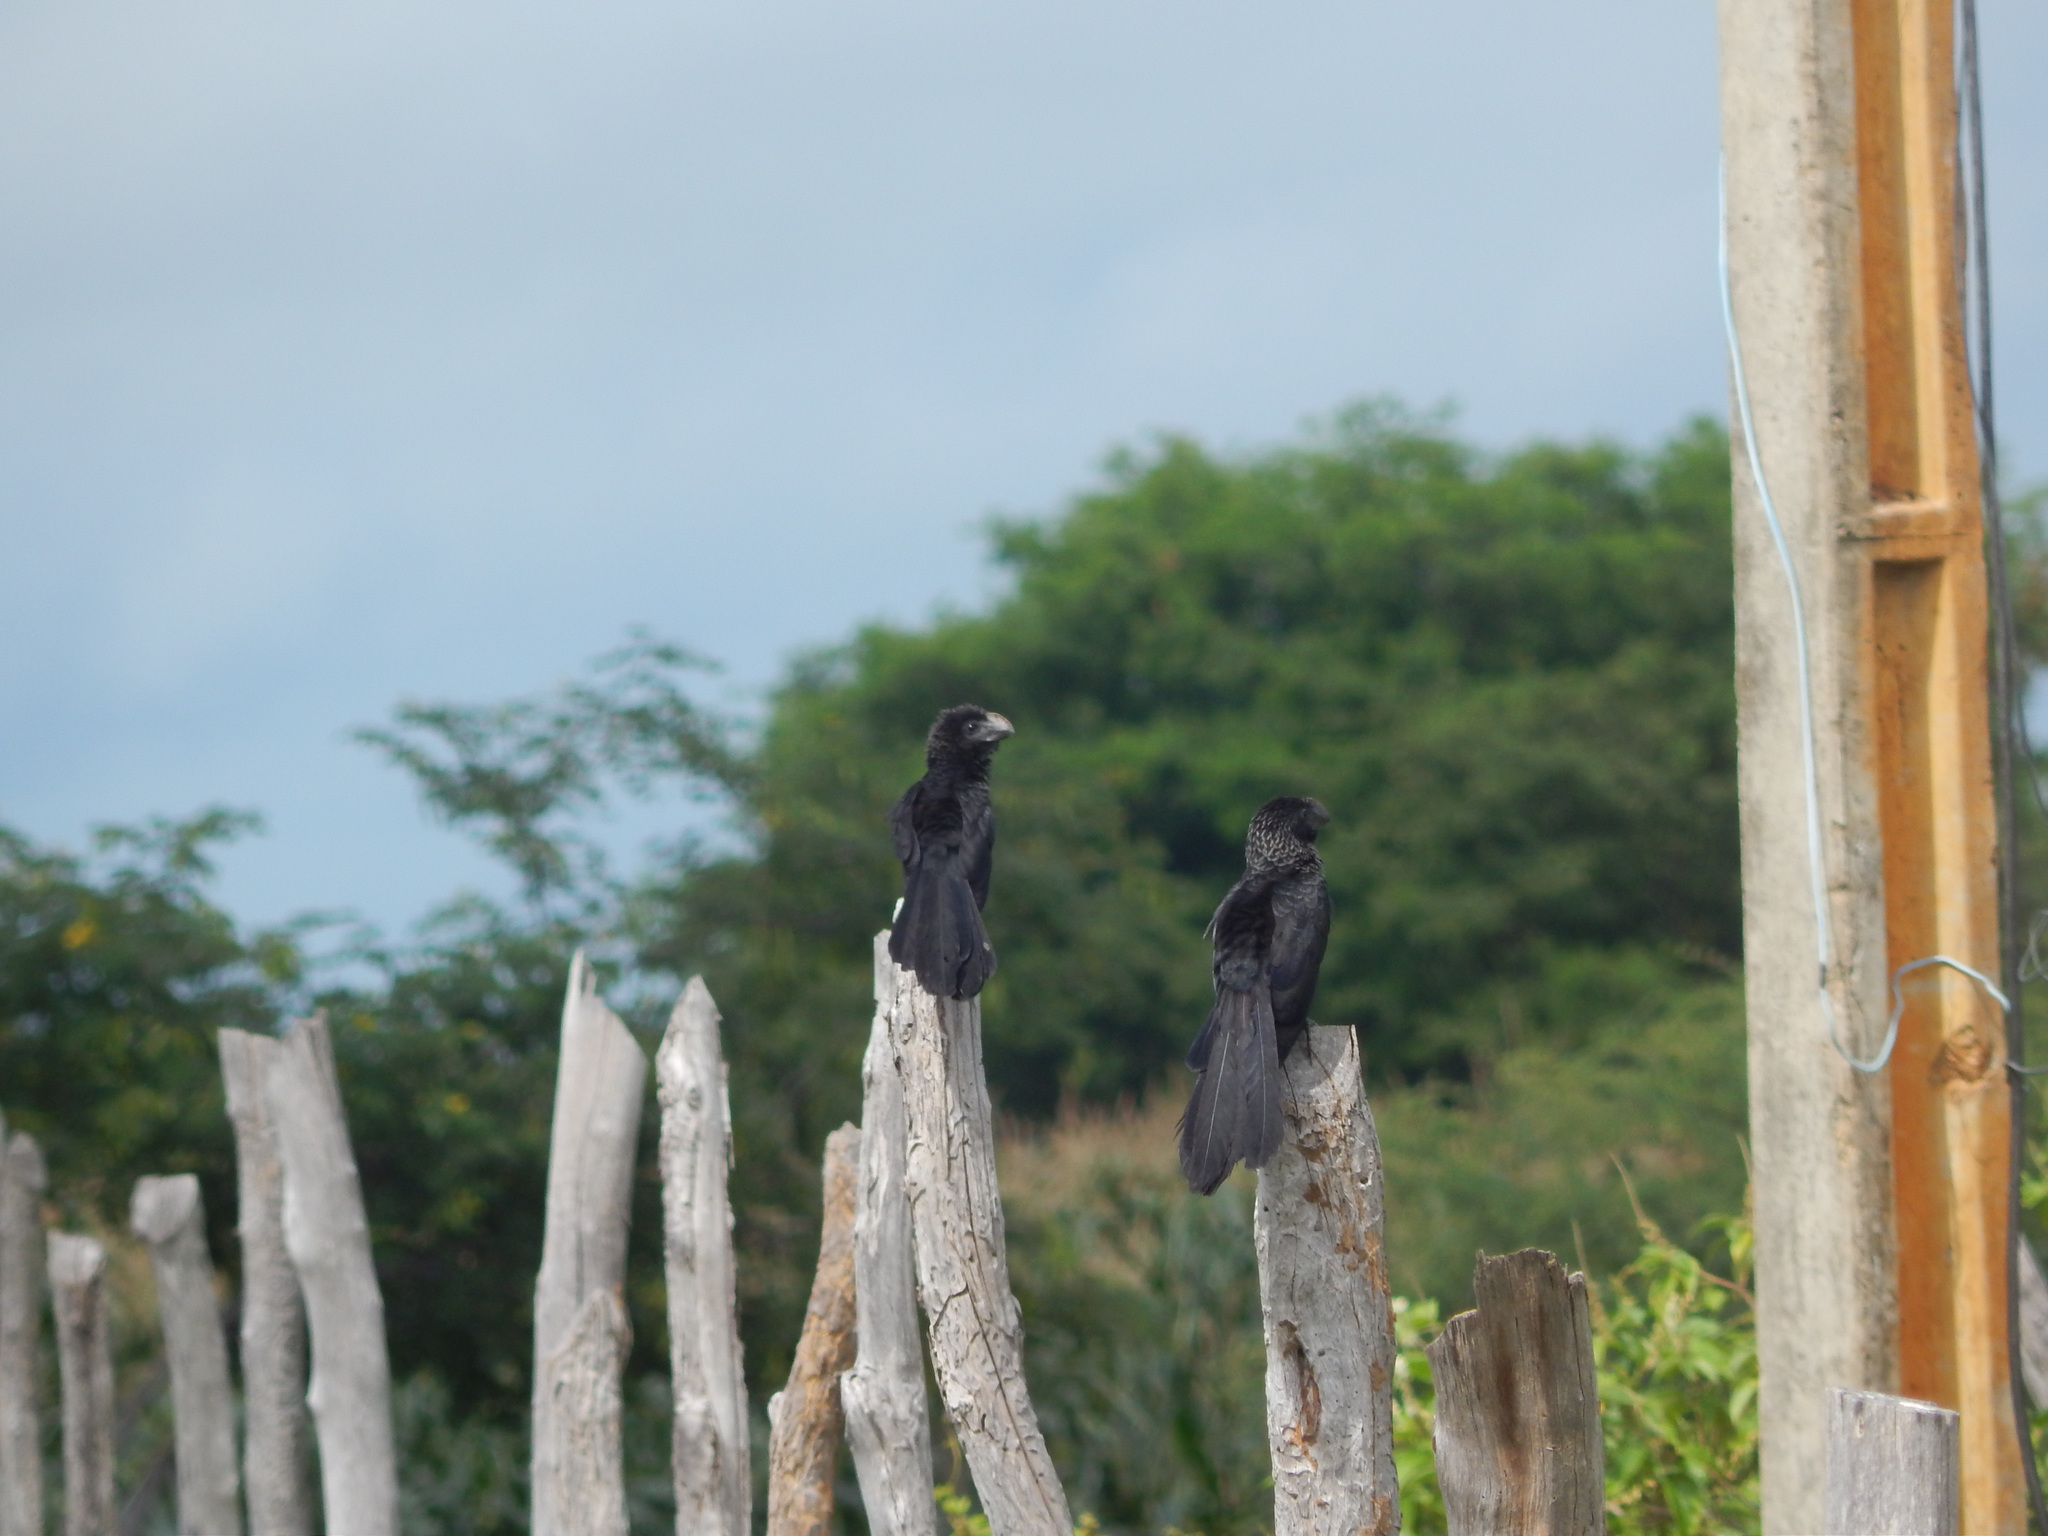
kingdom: Animalia
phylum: Chordata
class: Aves
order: Cuculiformes
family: Cuculidae
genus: Crotophaga
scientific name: Crotophaga ani
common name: Smooth-billed ani
